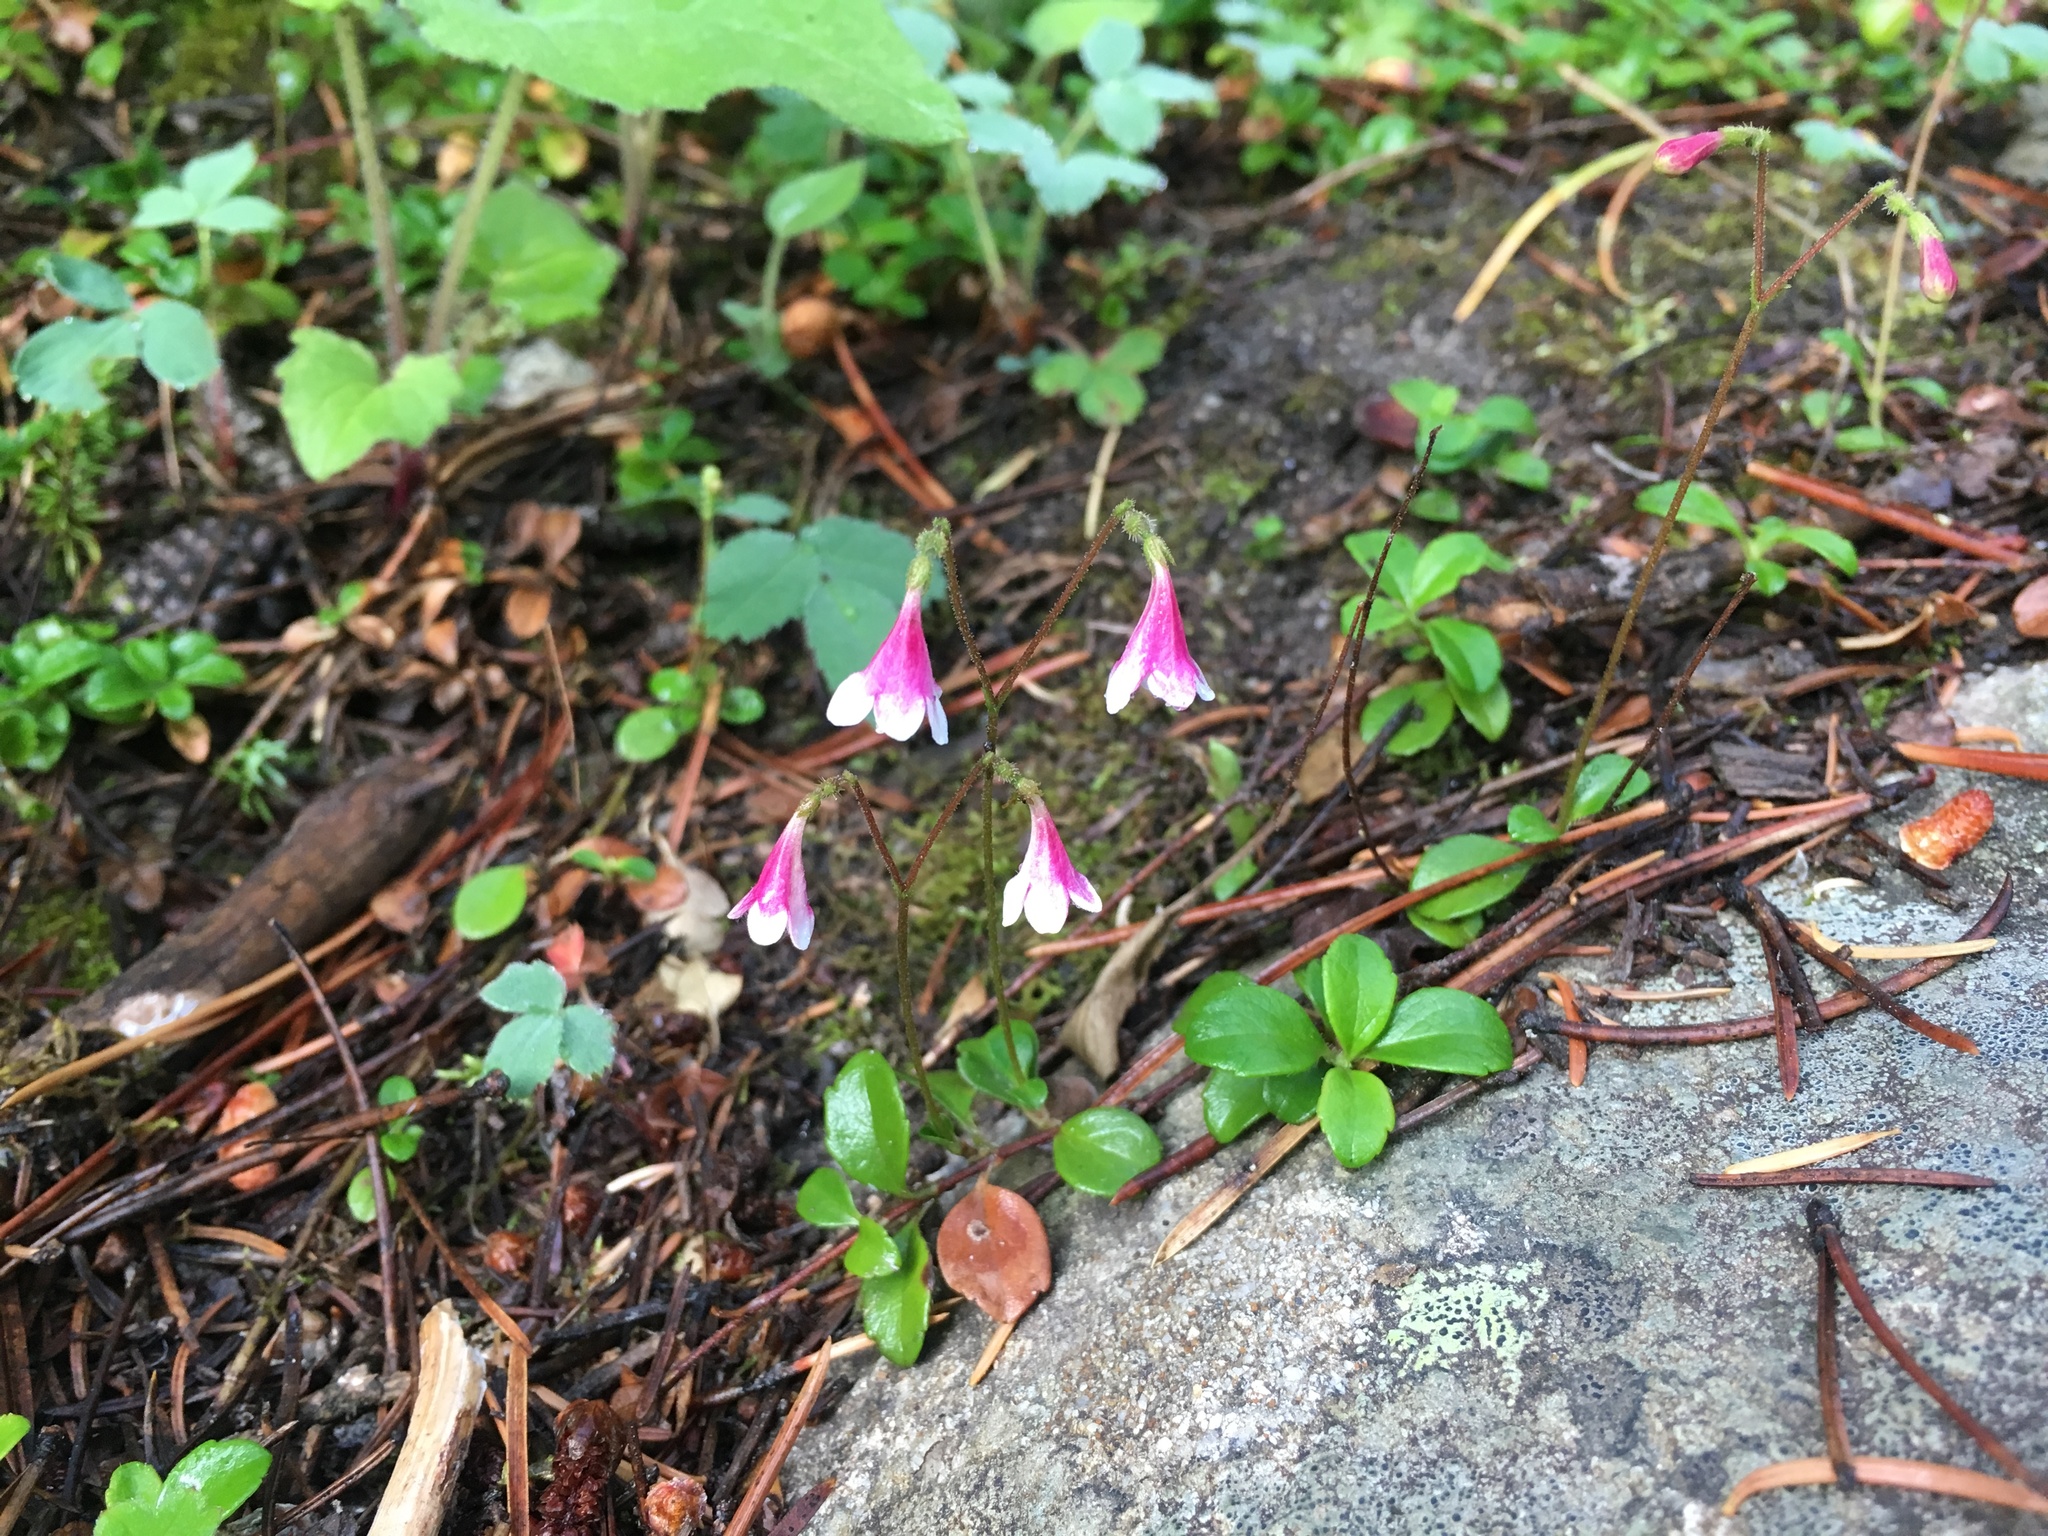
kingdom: Plantae
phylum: Tracheophyta
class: Magnoliopsida
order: Dipsacales
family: Caprifoliaceae
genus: Linnaea
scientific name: Linnaea borealis
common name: Twinflower
